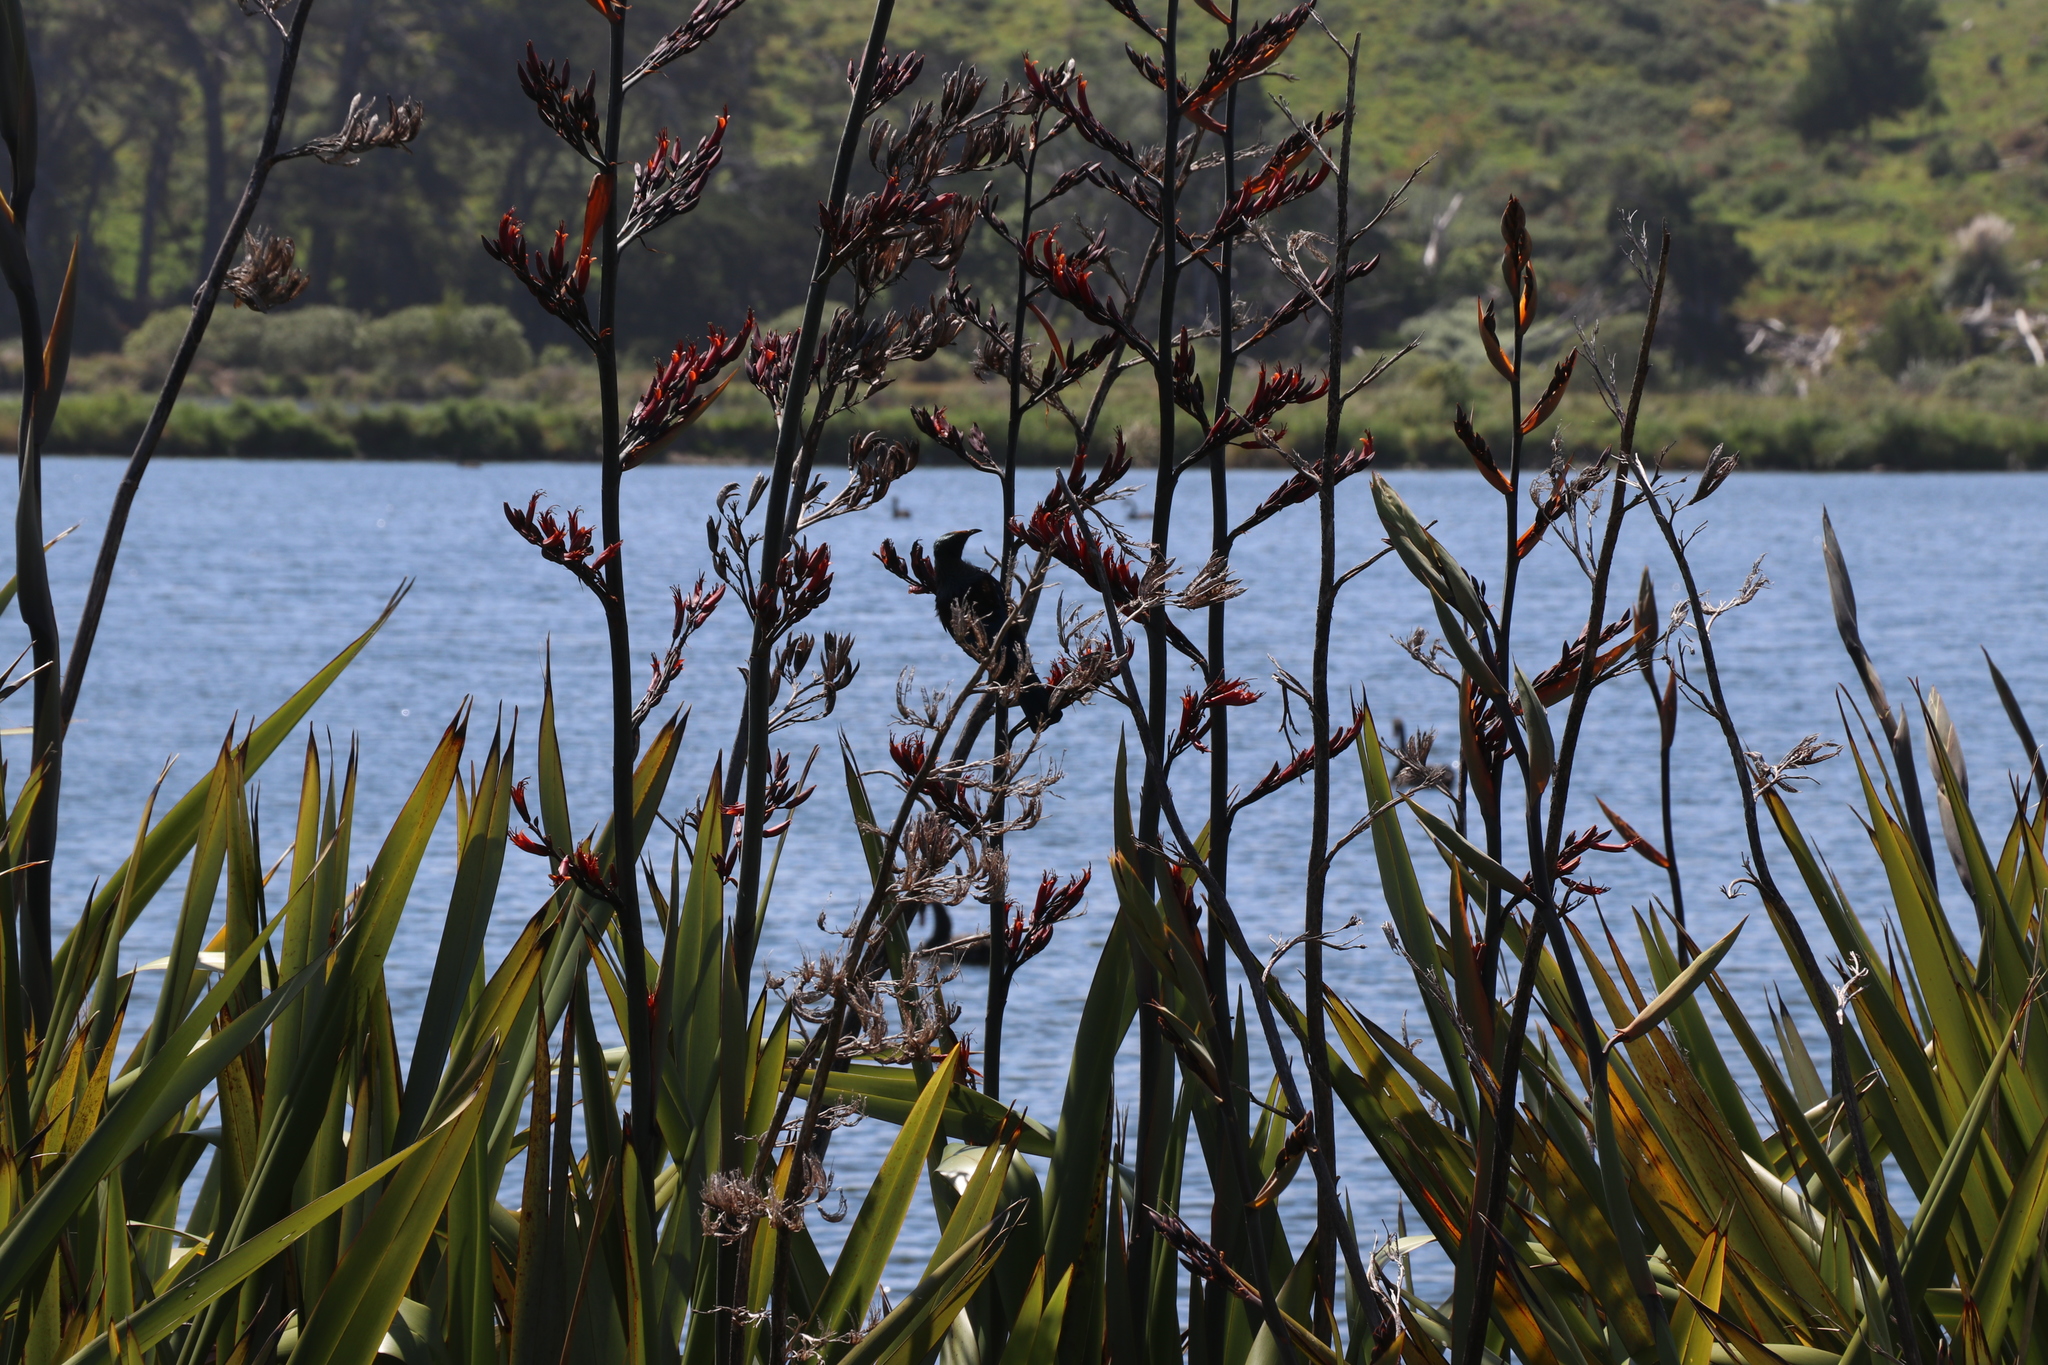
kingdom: Animalia
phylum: Chordata
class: Aves
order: Passeriformes
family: Meliphagidae
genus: Prosthemadera
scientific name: Prosthemadera novaeseelandiae
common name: Tui
